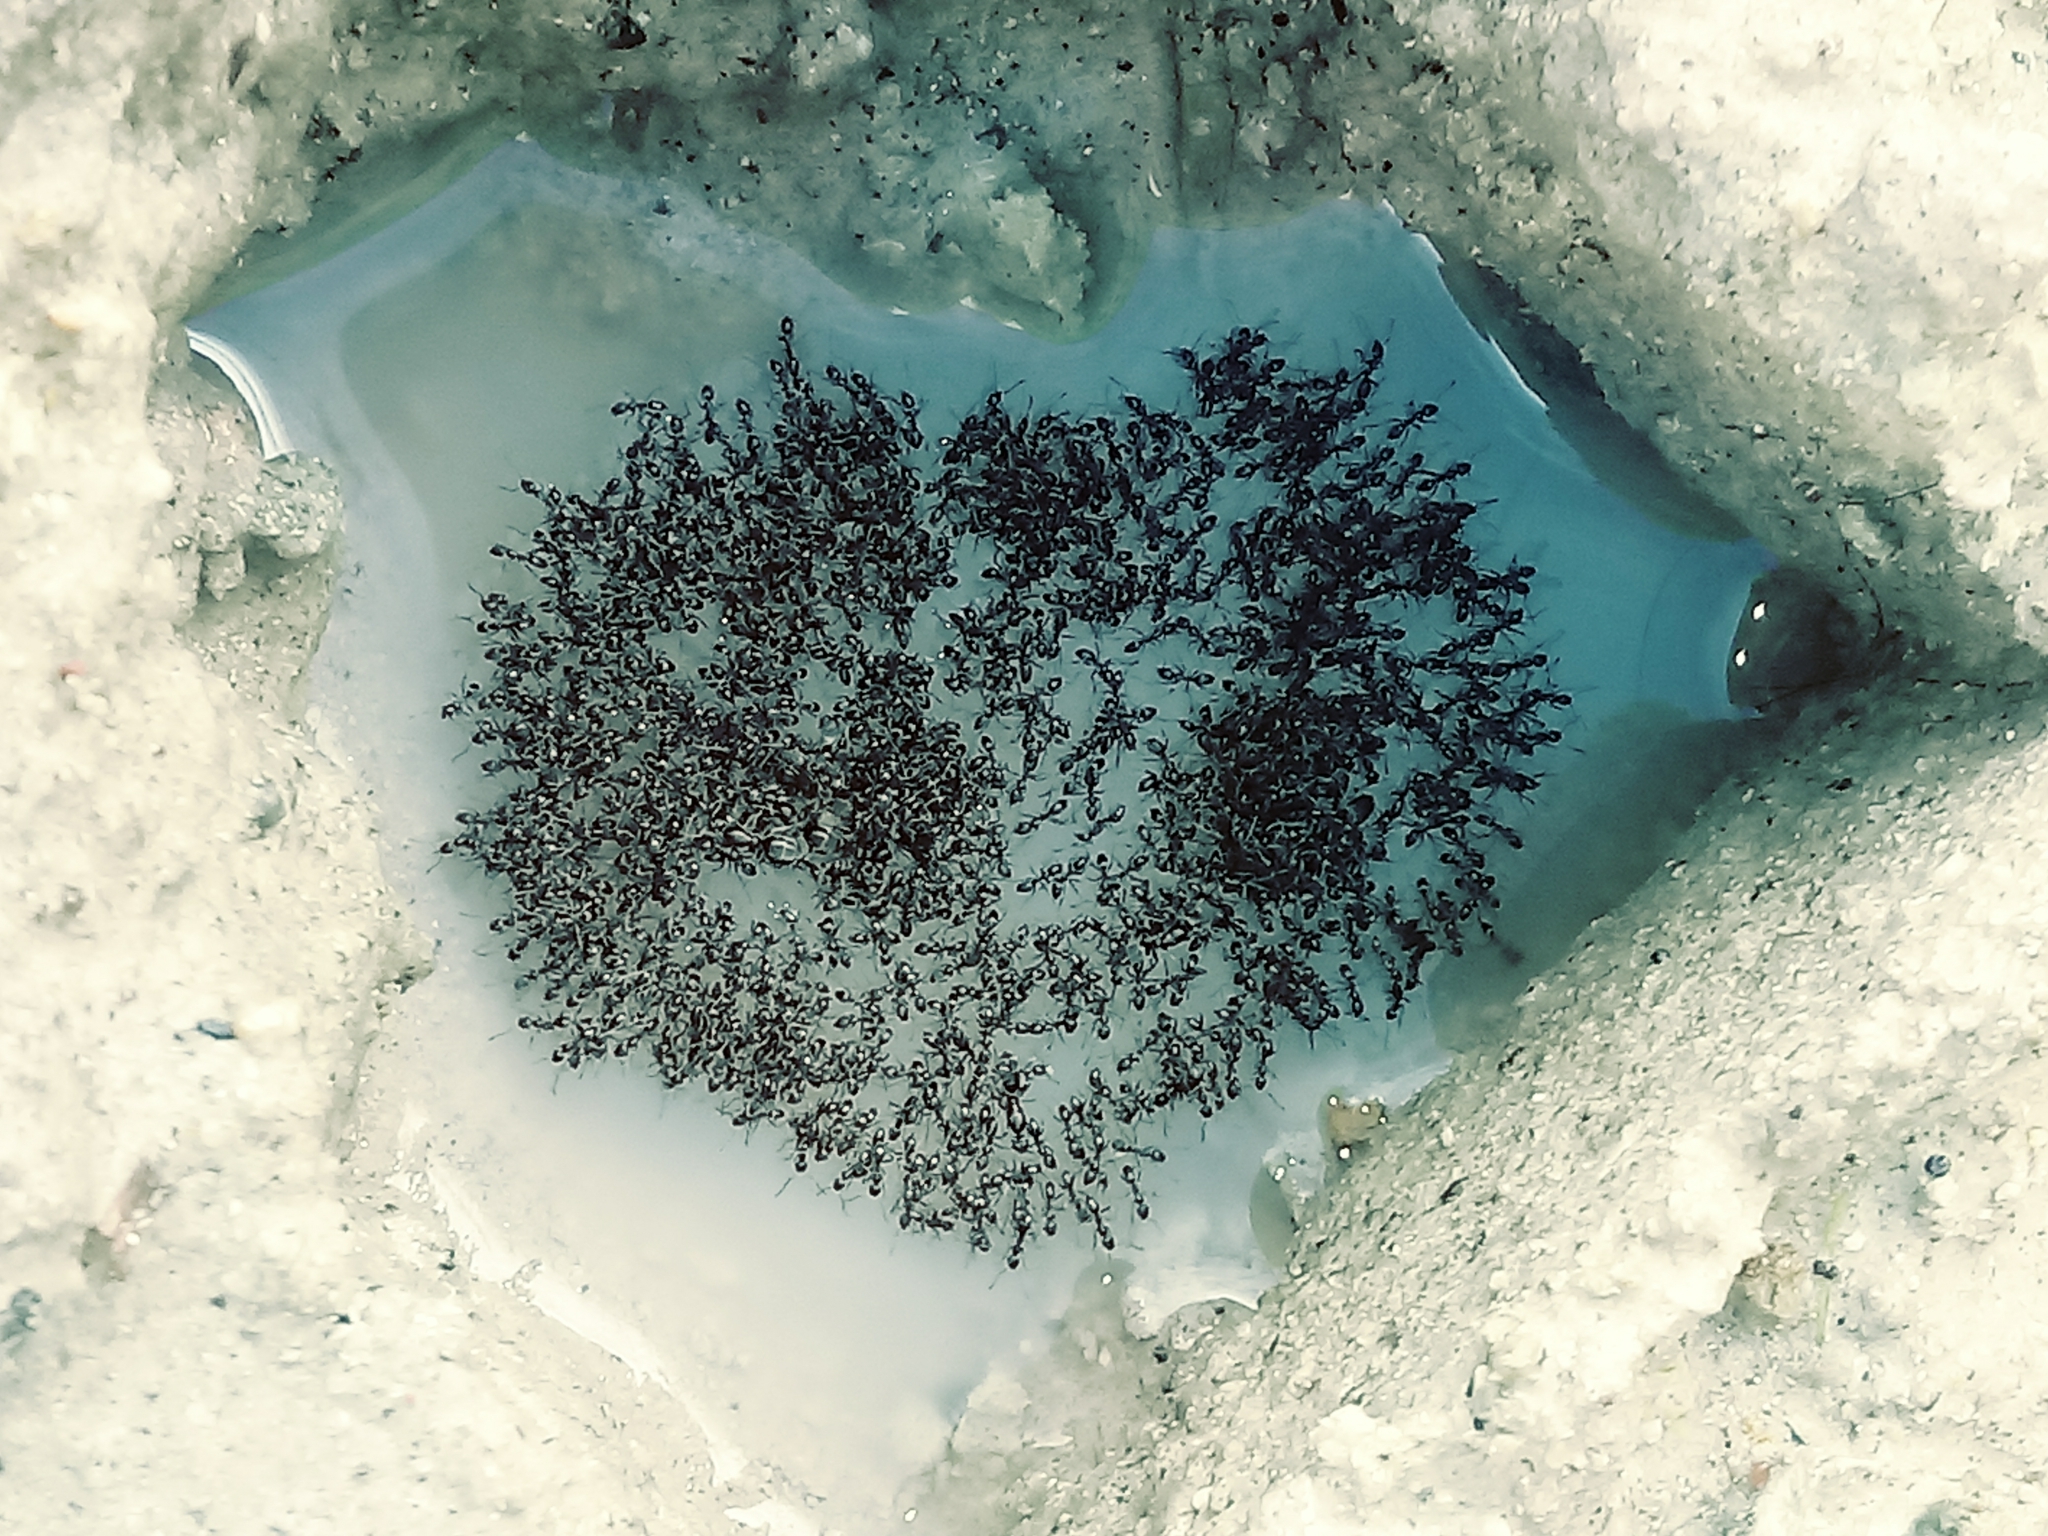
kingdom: Animalia
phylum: Arthropoda
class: Insecta
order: Hymenoptera
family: Formicidae
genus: Linepithema
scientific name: Linepithema humile
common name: Argentine ant
